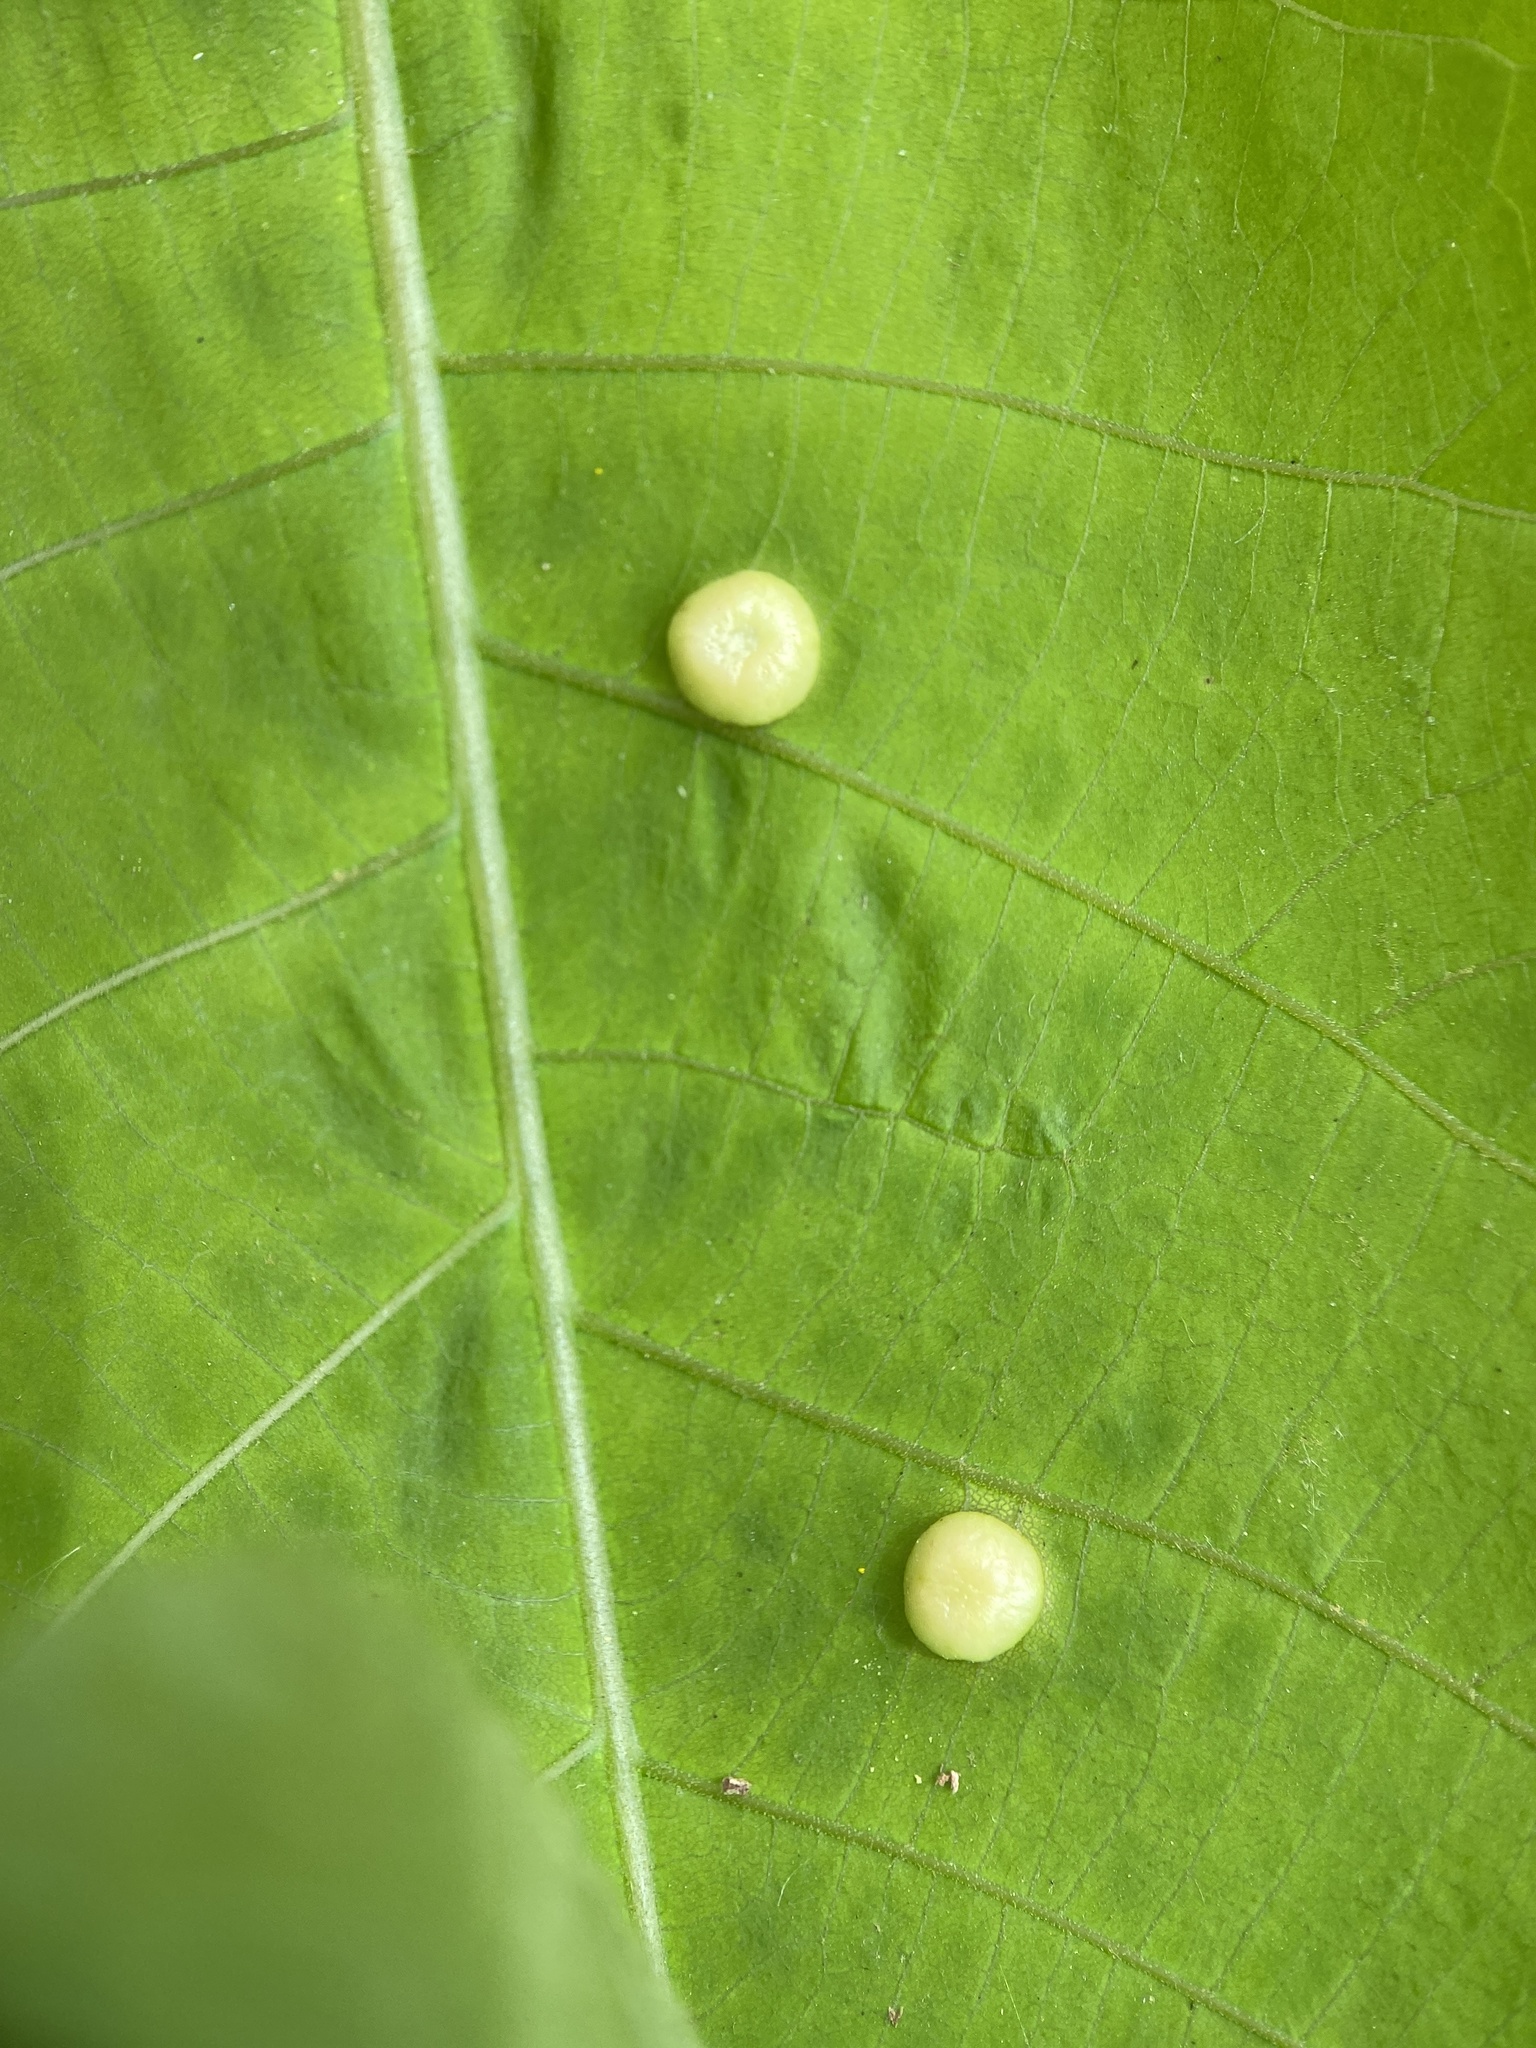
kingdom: Animalia
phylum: Arthropoda
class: Insecta
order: Hemiptera
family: Phylloxeridae
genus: Phylloxera
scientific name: Phylloxera caryae-globuli
